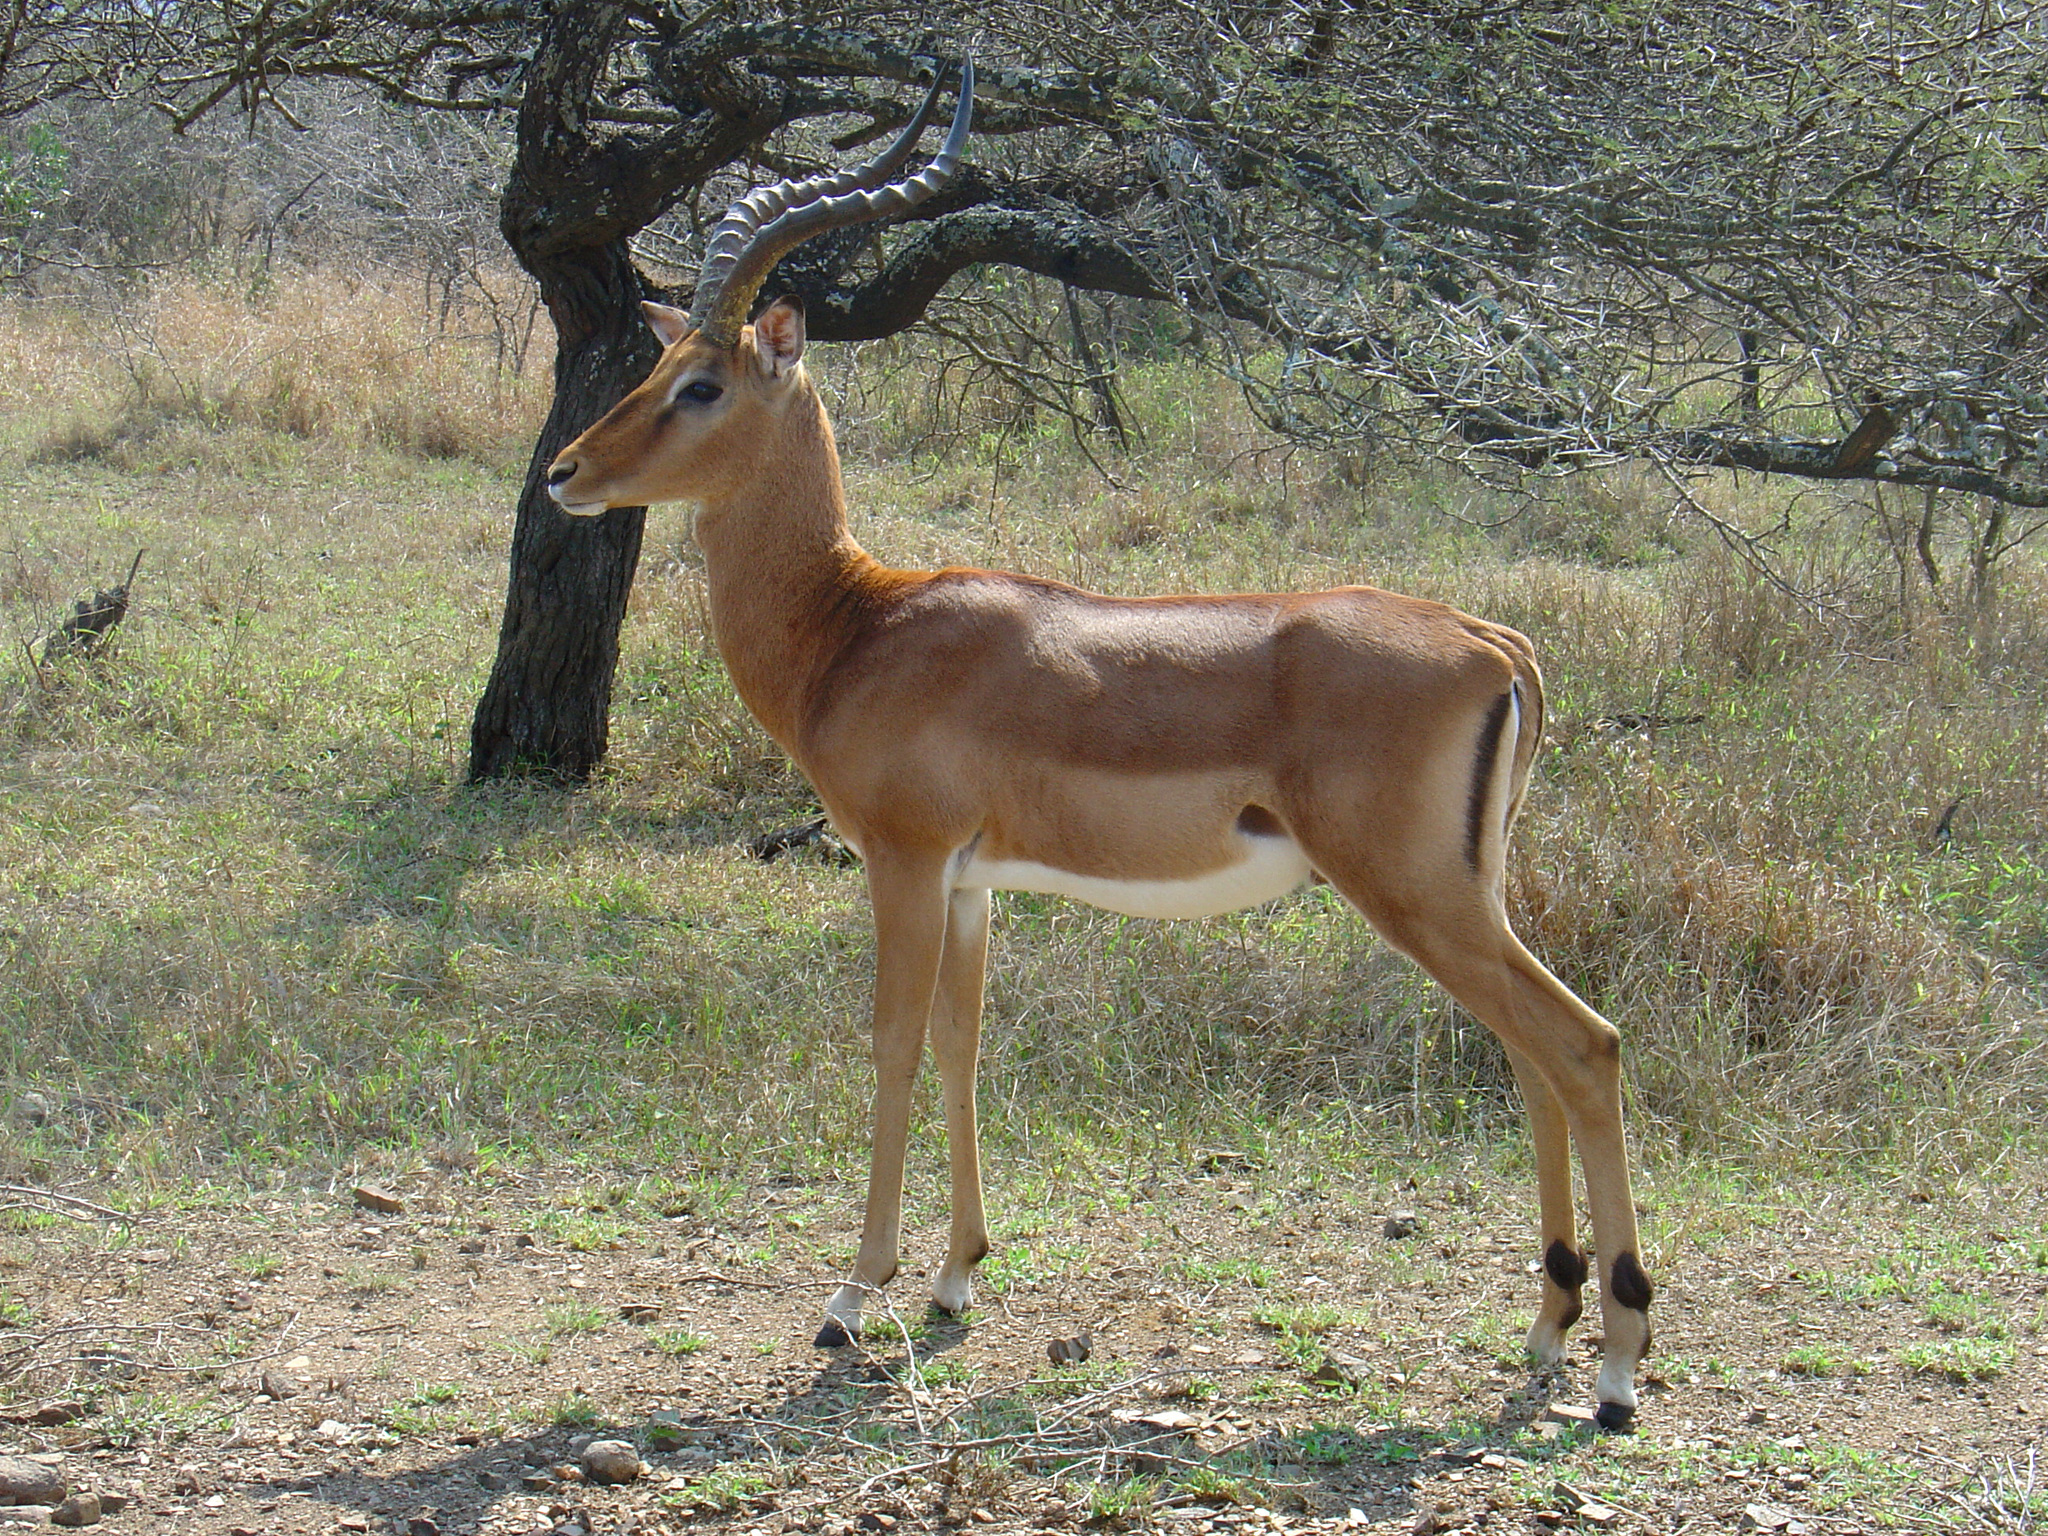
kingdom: Animalia
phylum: Chordata
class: Mammalia
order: Artiodactyla
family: Bovidae
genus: Aepyceros
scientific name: Aepyceros melampus
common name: Impala
